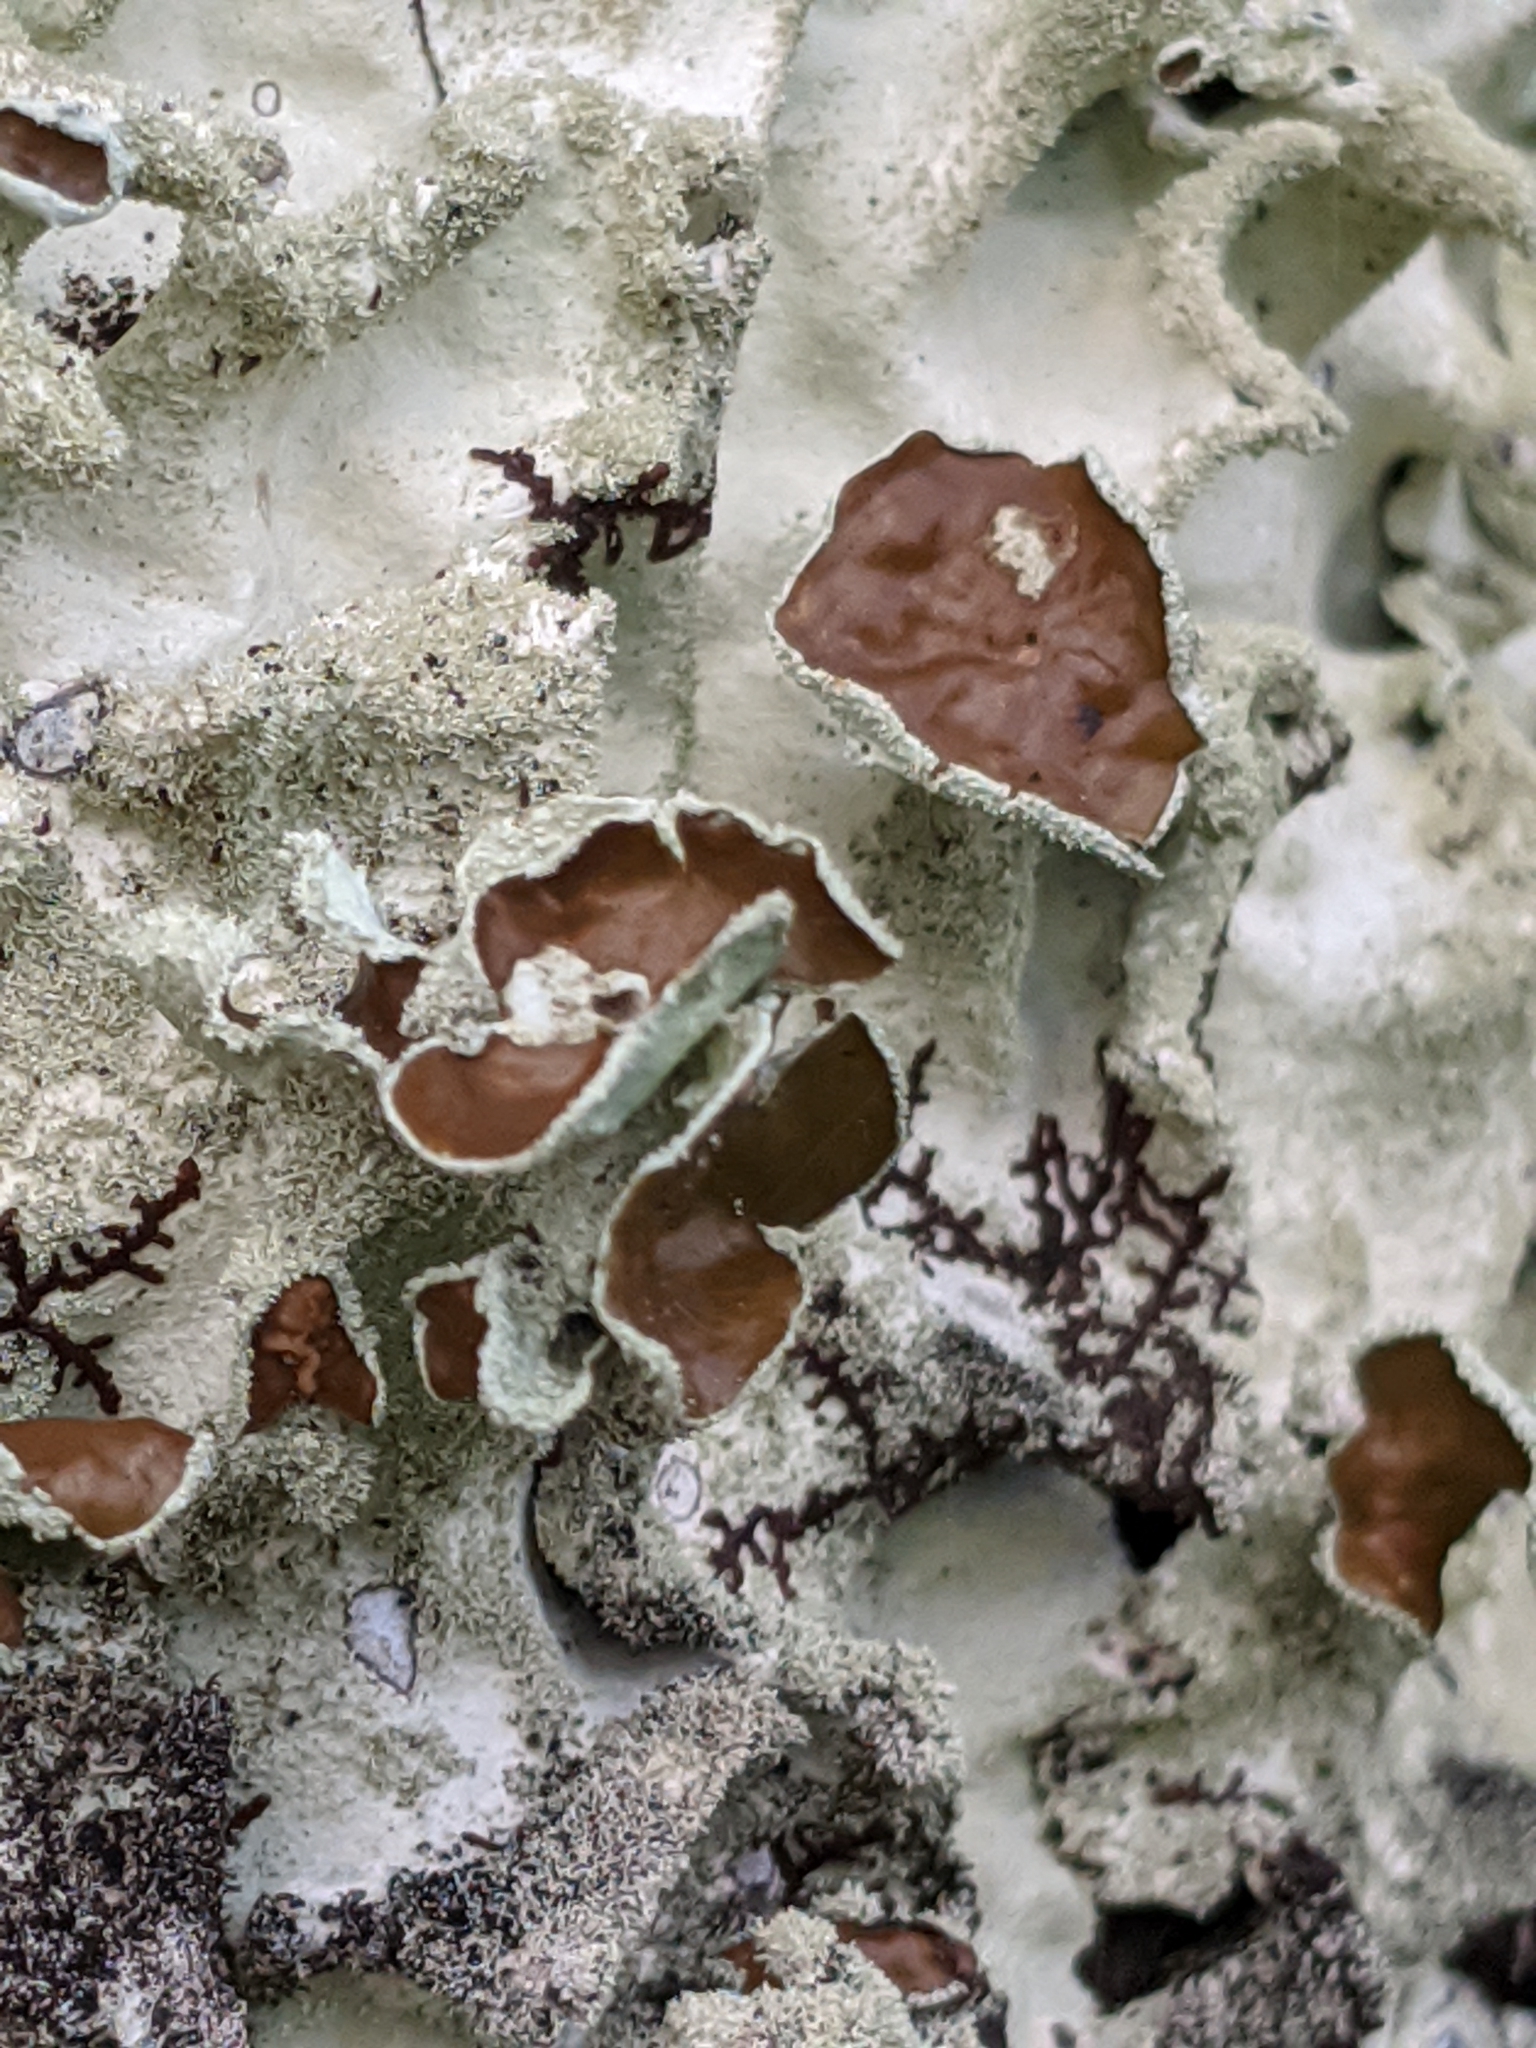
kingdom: Fungi
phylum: Ascomycota
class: Lecanoromycetes
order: Lecanorales
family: Parmeliaceae
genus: Parmotrema
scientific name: Parmotrema tinctorum
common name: Old gray ruffles
